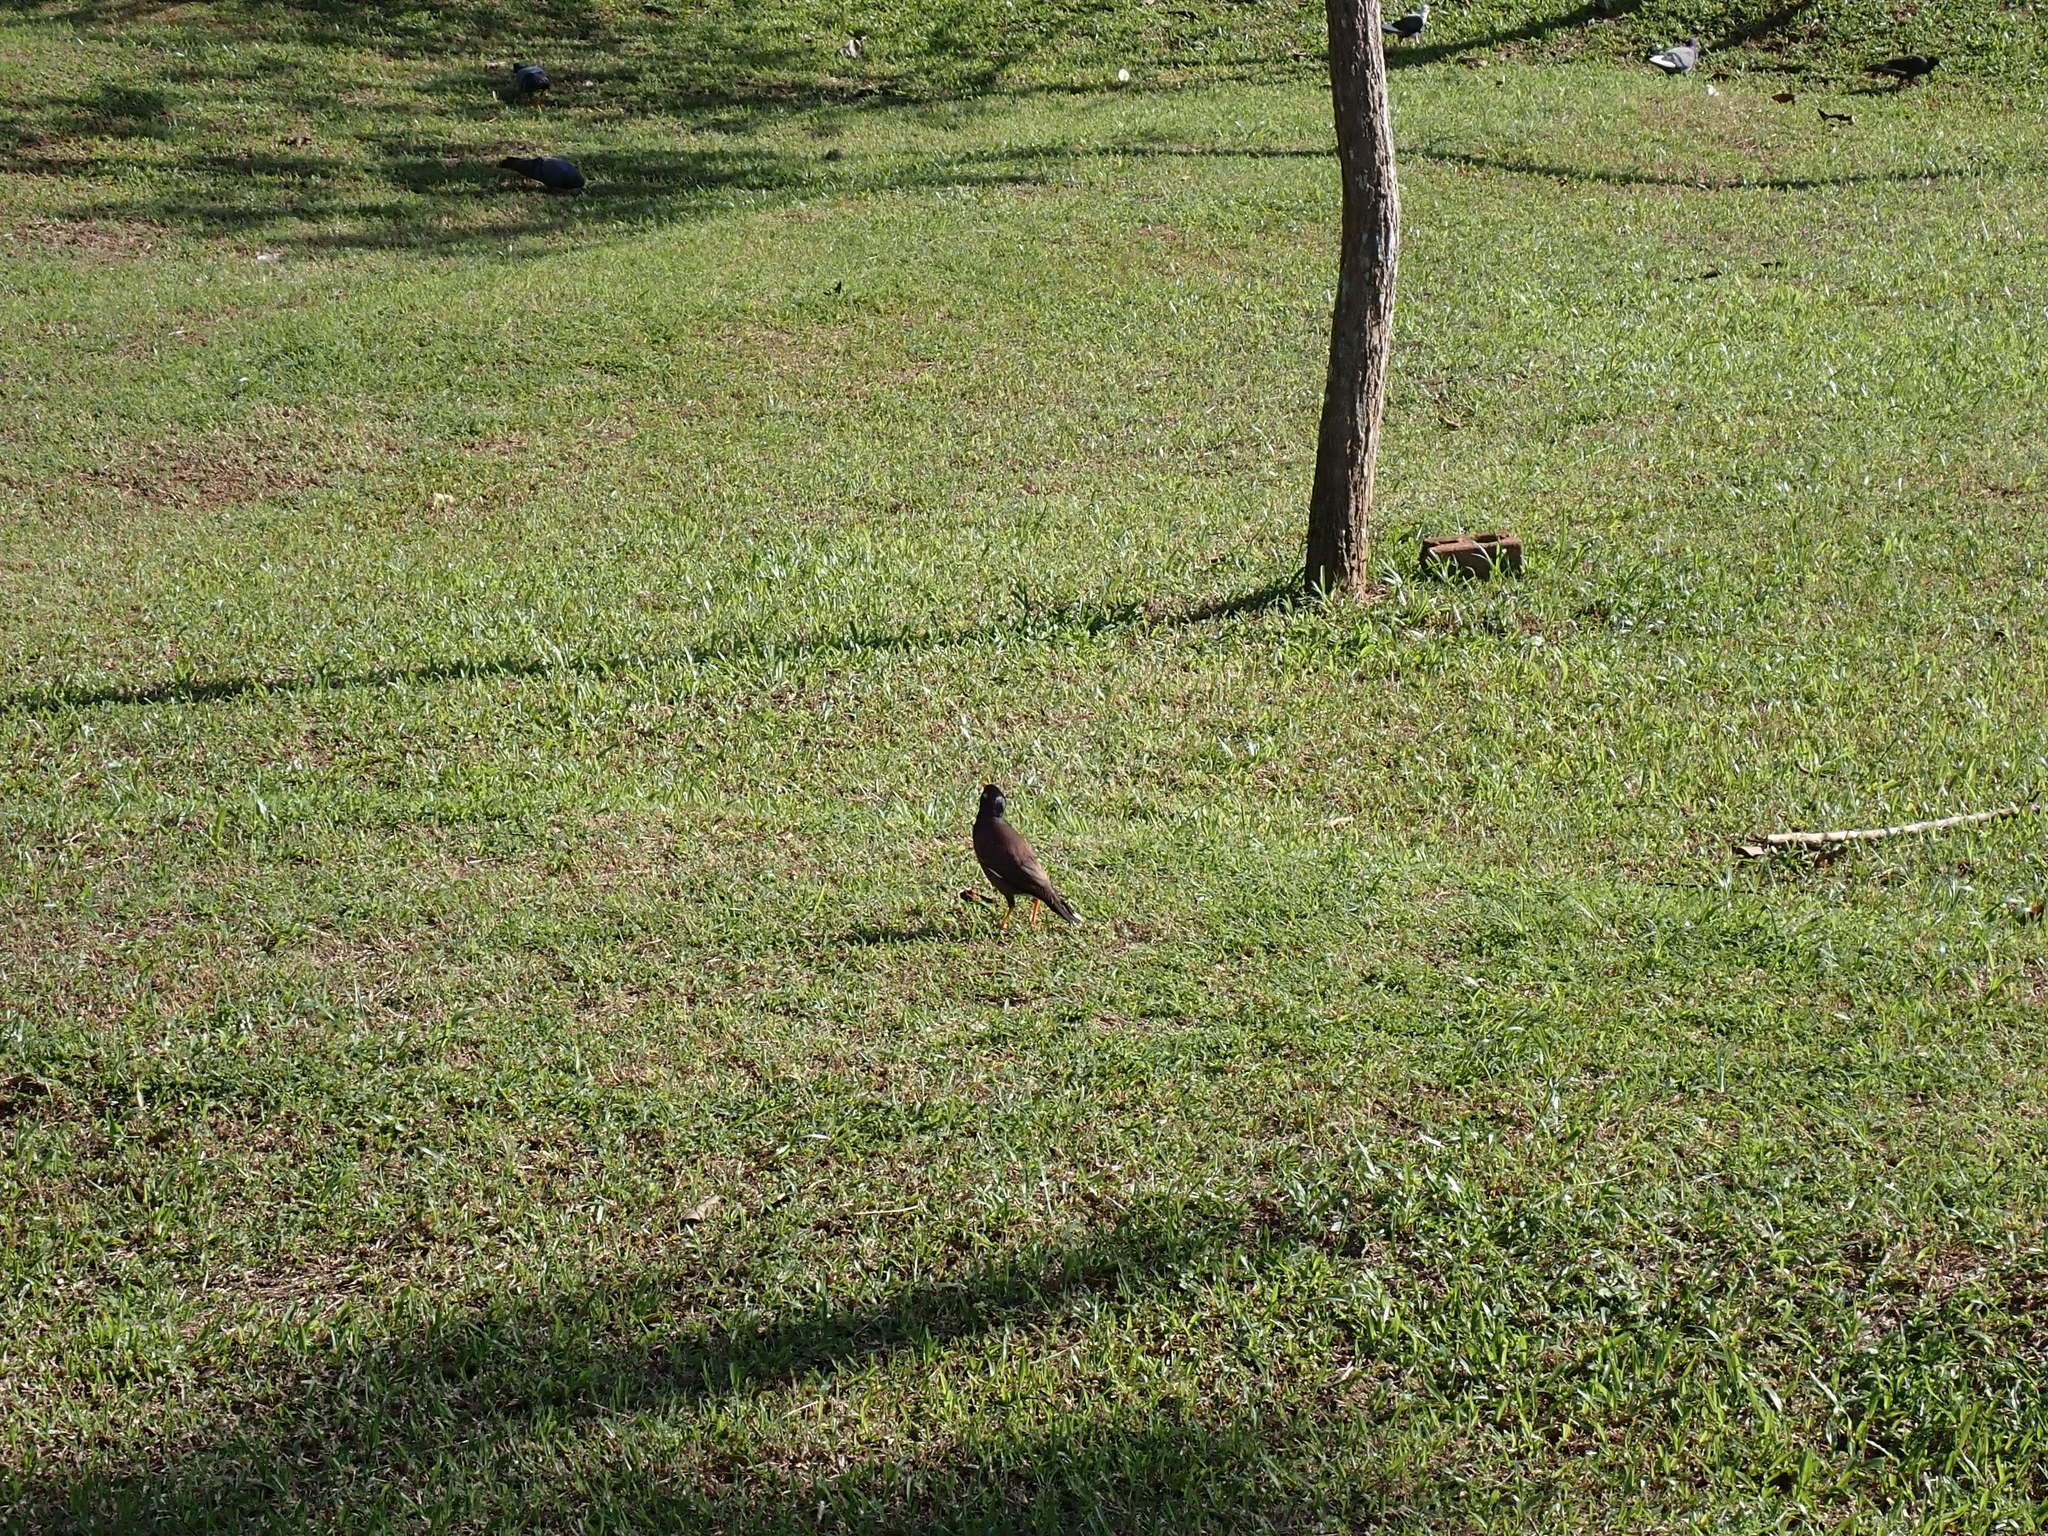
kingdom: Animalia
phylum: Chordata
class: Aves
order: Passeriformes
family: Sturnidae
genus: Acridotheres
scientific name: Acridotheres tristis
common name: Common myna
